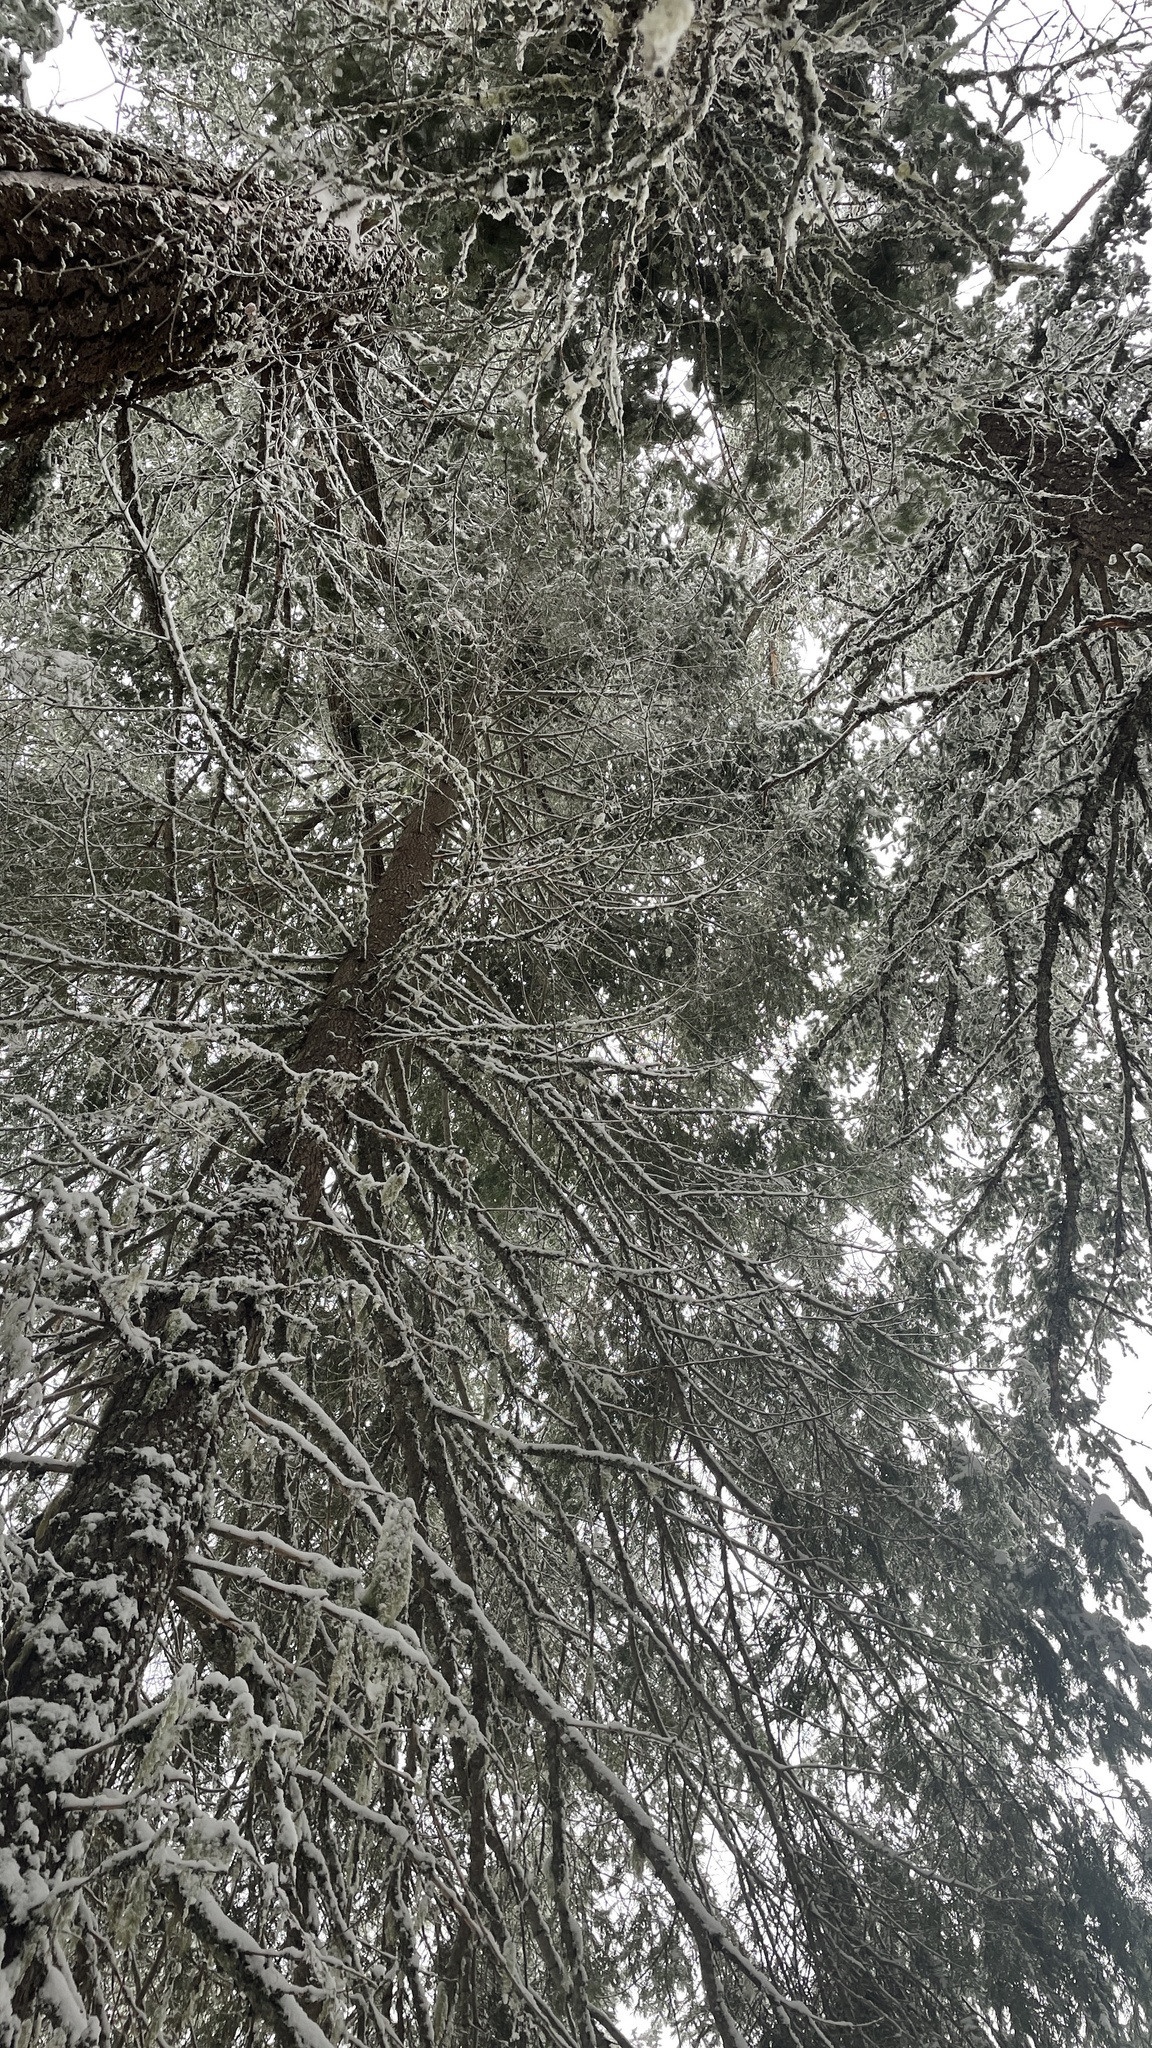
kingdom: Fungi
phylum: Ascomycota
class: Pezizomycetes
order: Pezizales
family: Tuberaceae
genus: Tuber
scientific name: Tuber anniae
